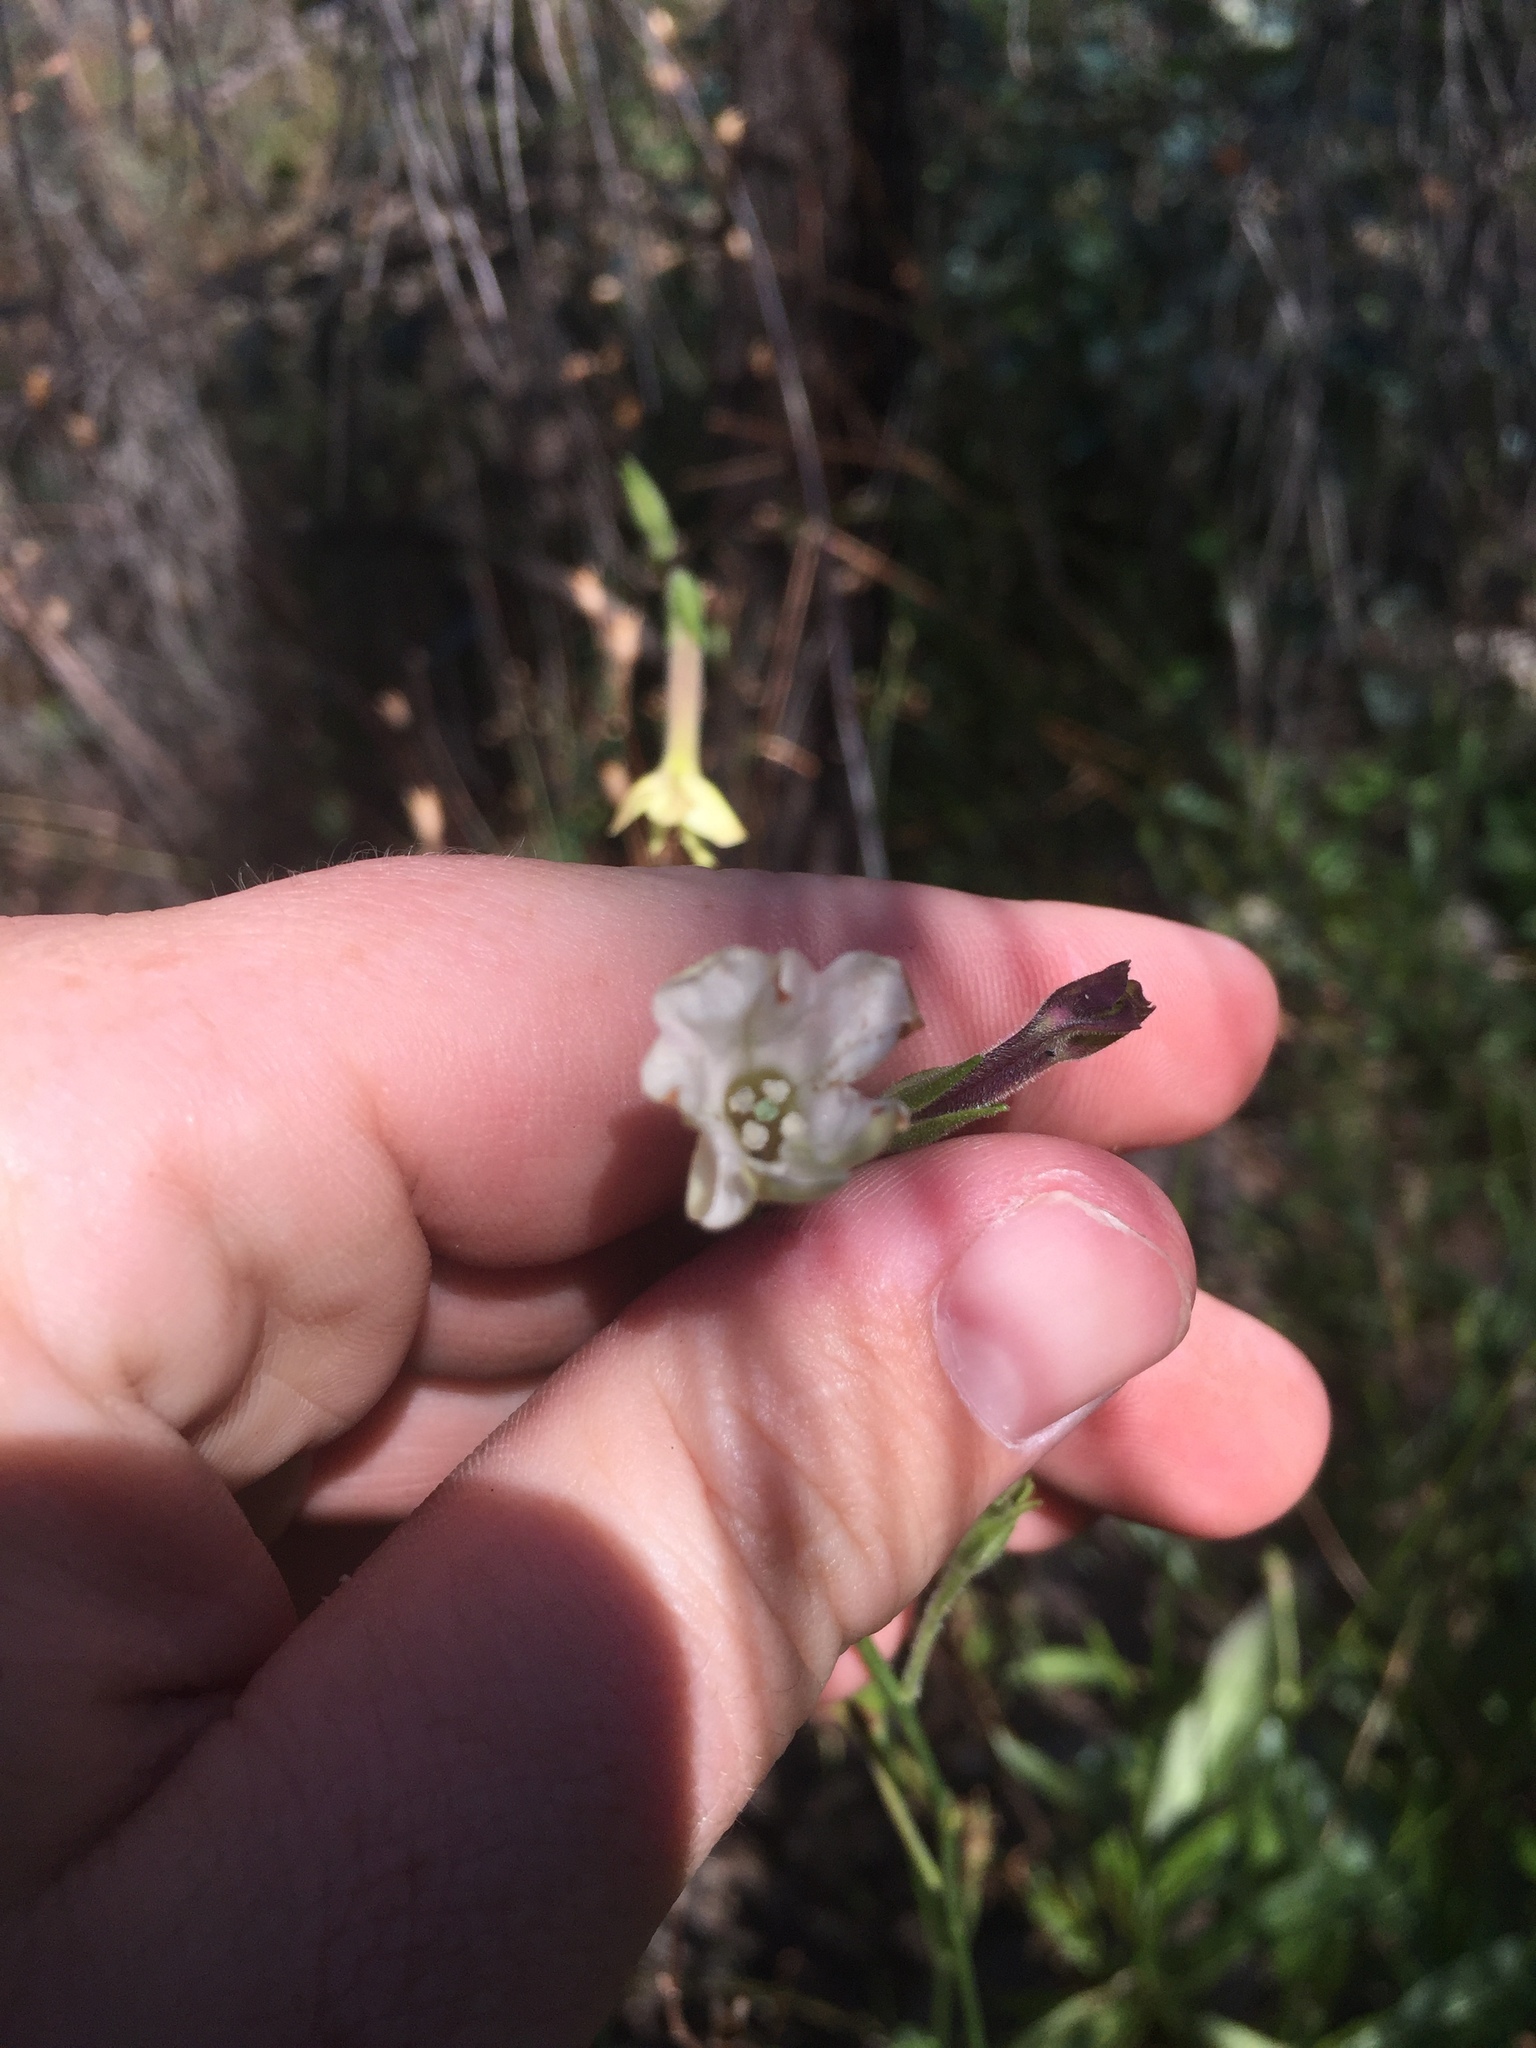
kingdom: Plantae
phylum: Tracheophyta
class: Magnoliopsida
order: Solanales
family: Solanaceae
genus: Nicotiana
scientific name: Nicotiana suaveolens
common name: Australian tobacco
